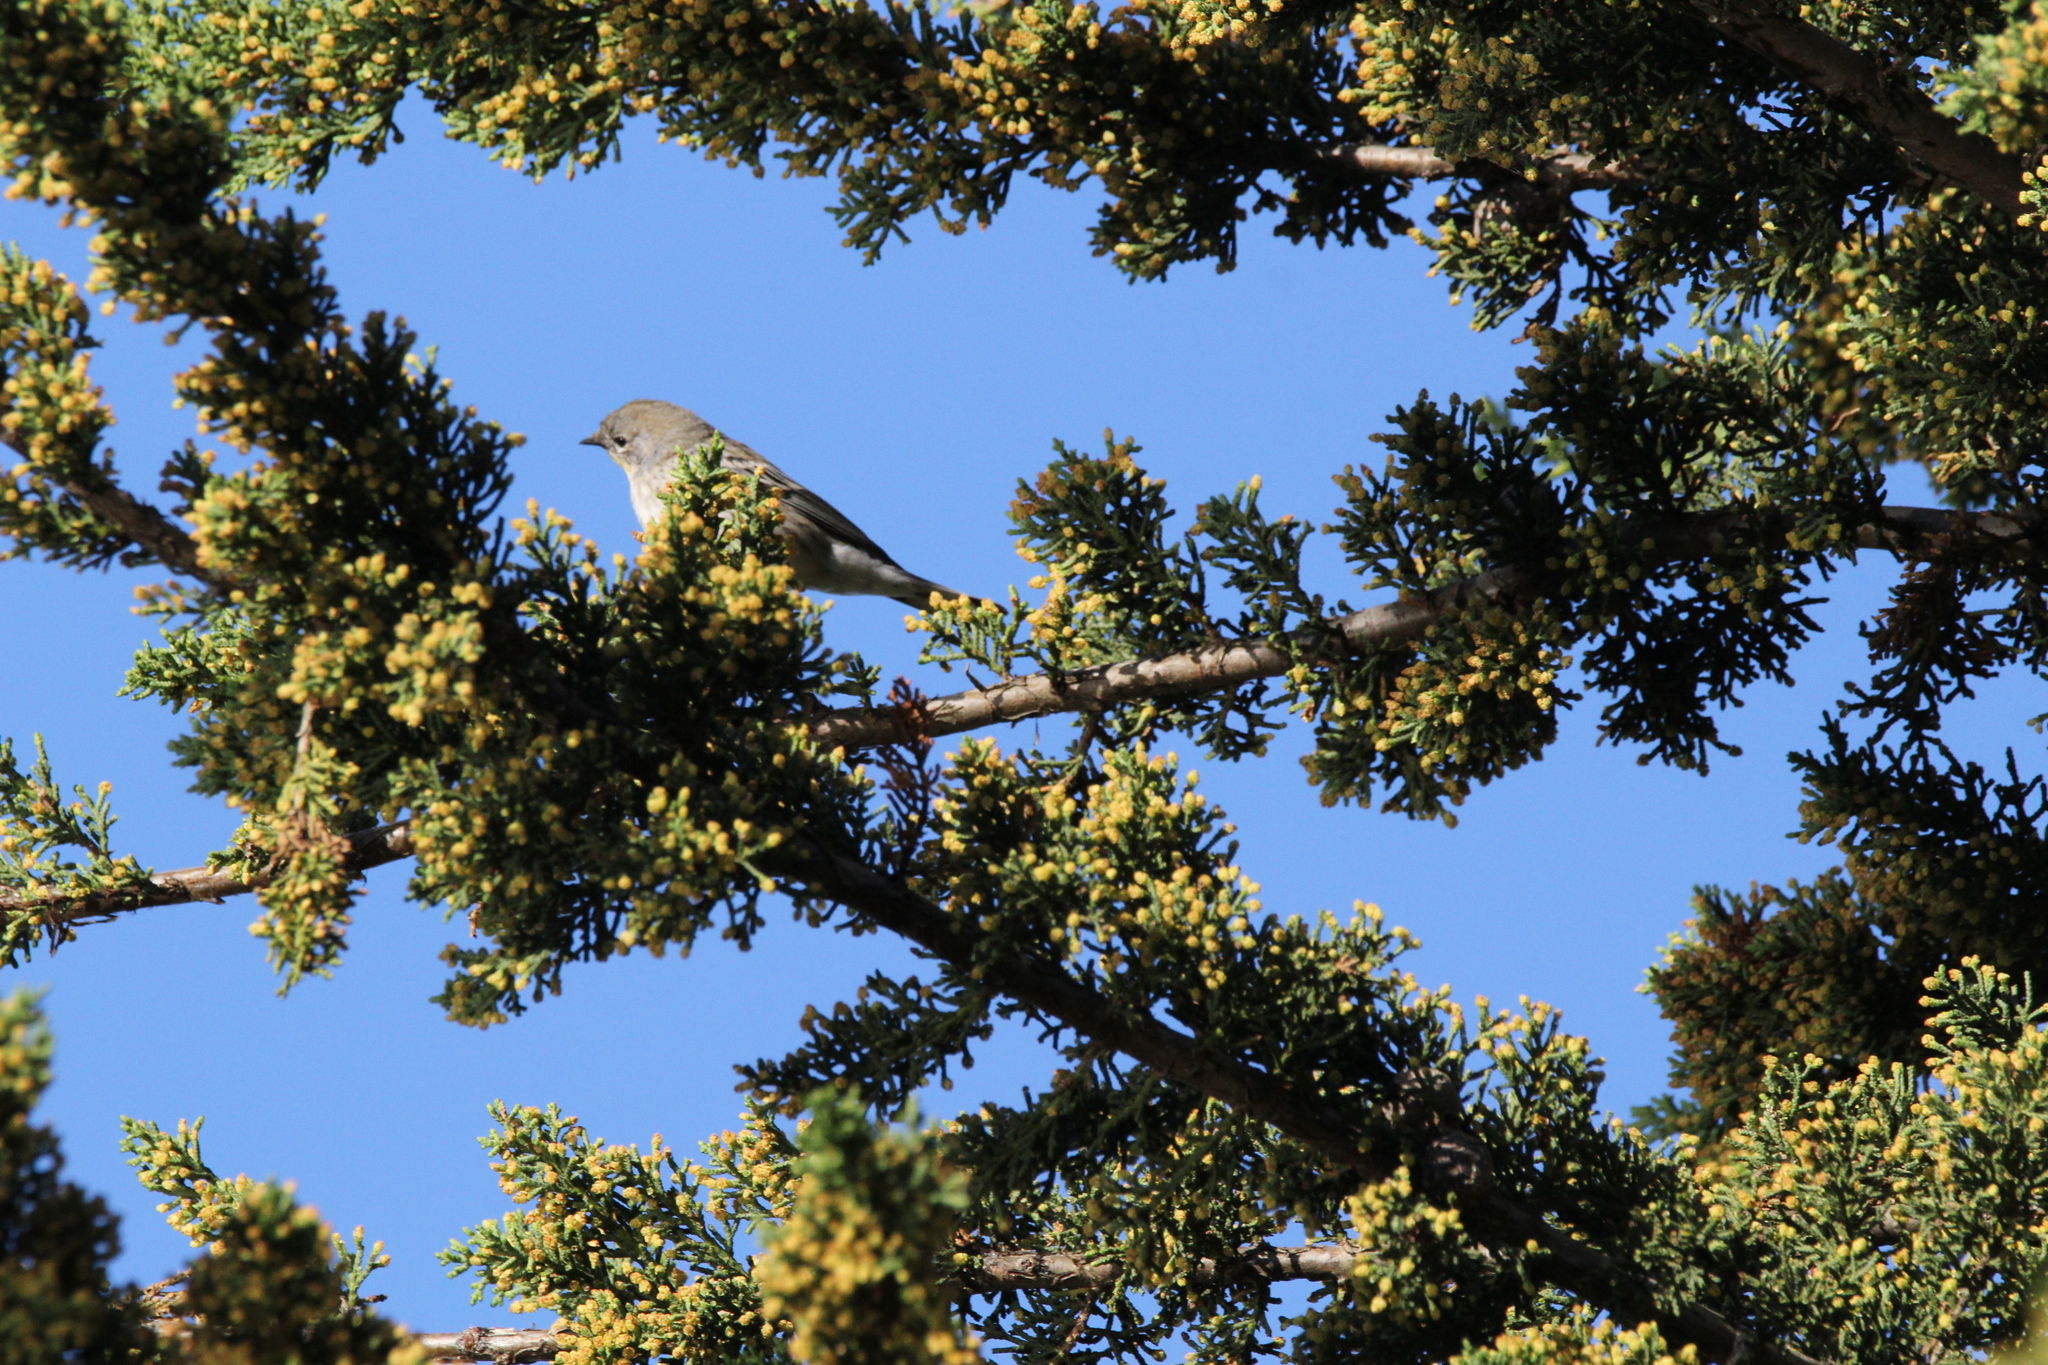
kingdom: Animalia
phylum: Chordata
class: Aves
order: Passeriformes
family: Parulidae
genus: Setophaga
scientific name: Setophaga coronata
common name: Myrtle warbler
